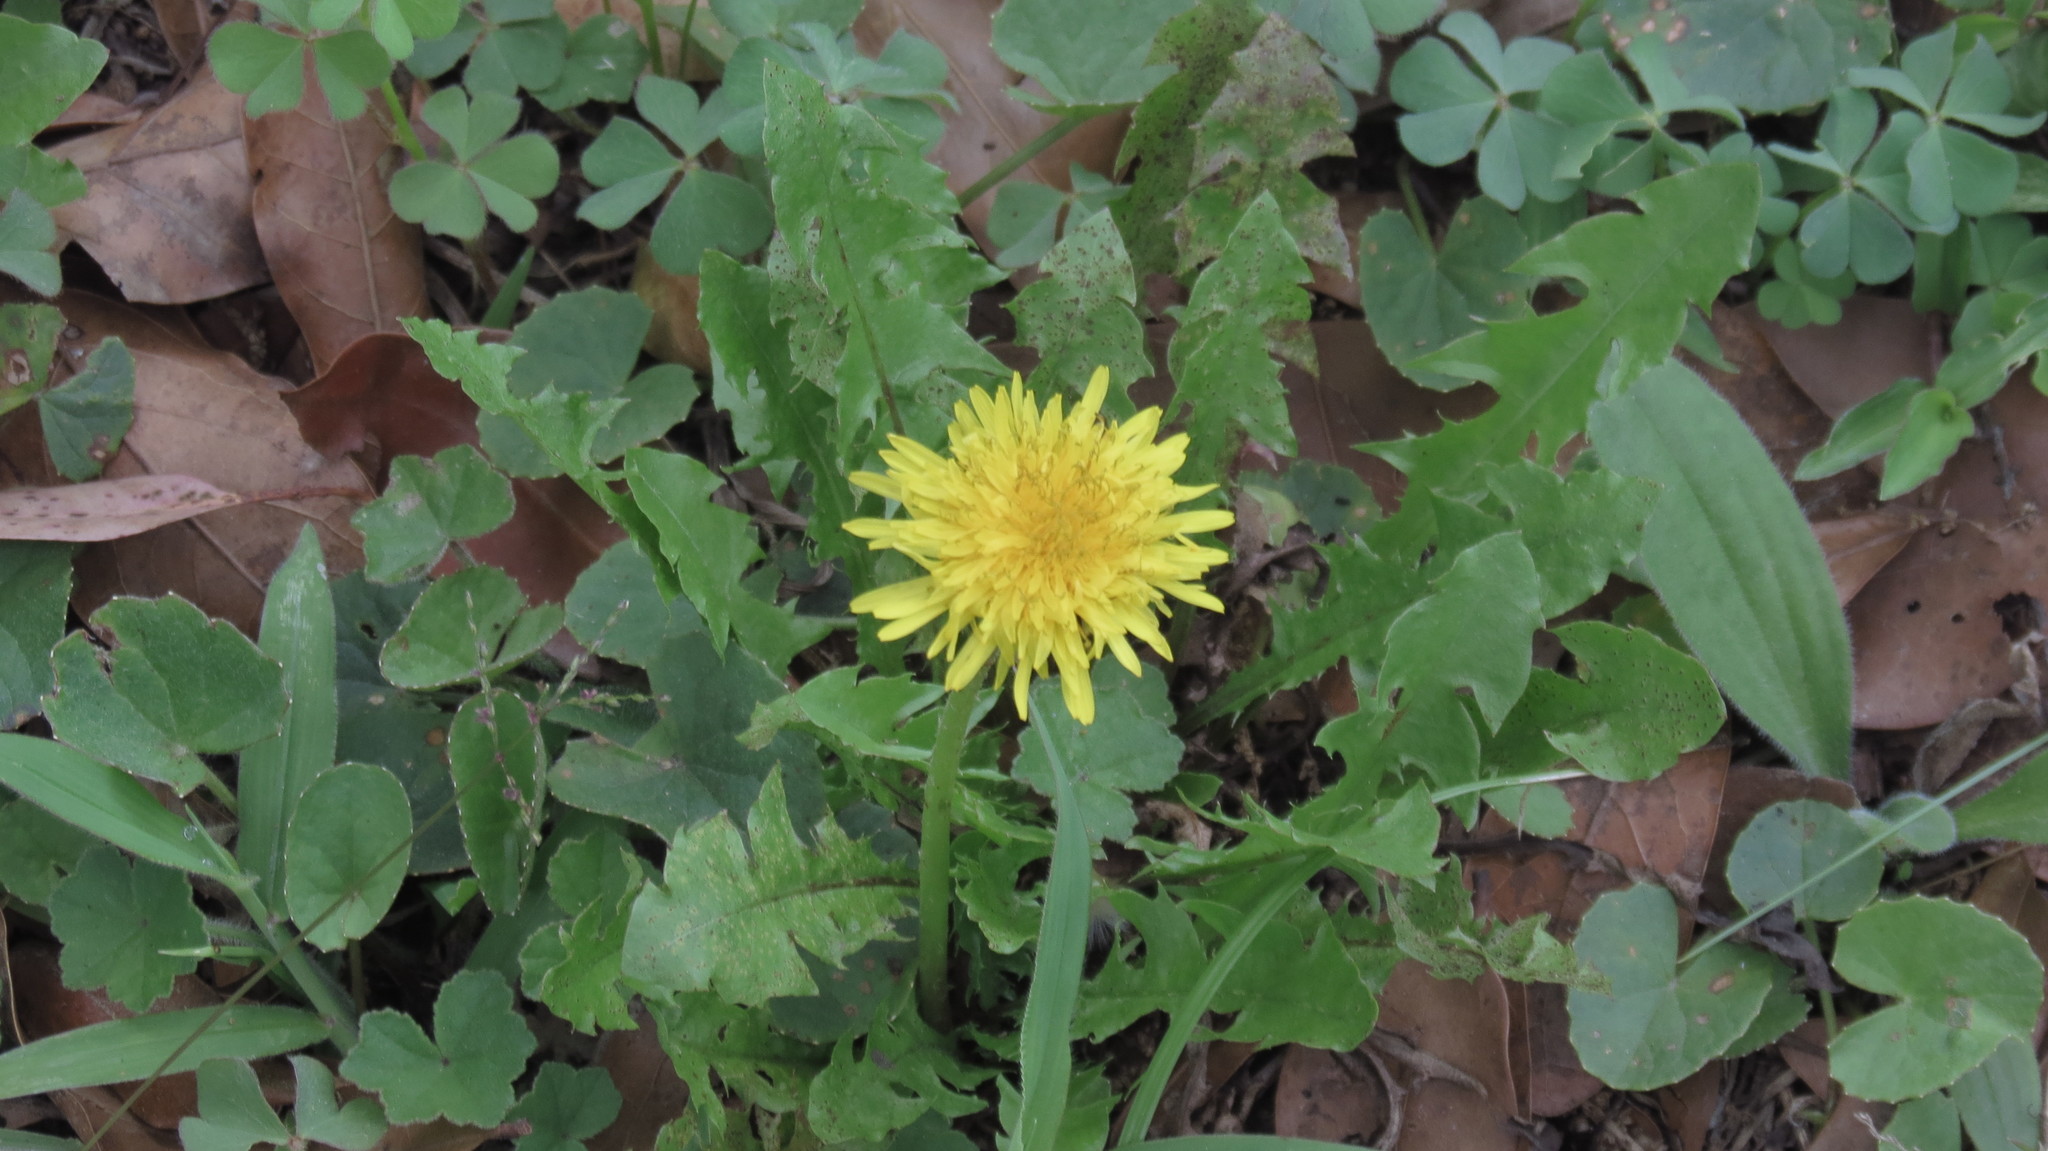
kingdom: Plantae
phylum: Tracheophyta
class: Magnoliopsida
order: Asterales
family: Asteraceae
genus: Taraxacum
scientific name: Taraxacum officinale
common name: Common dandelion
